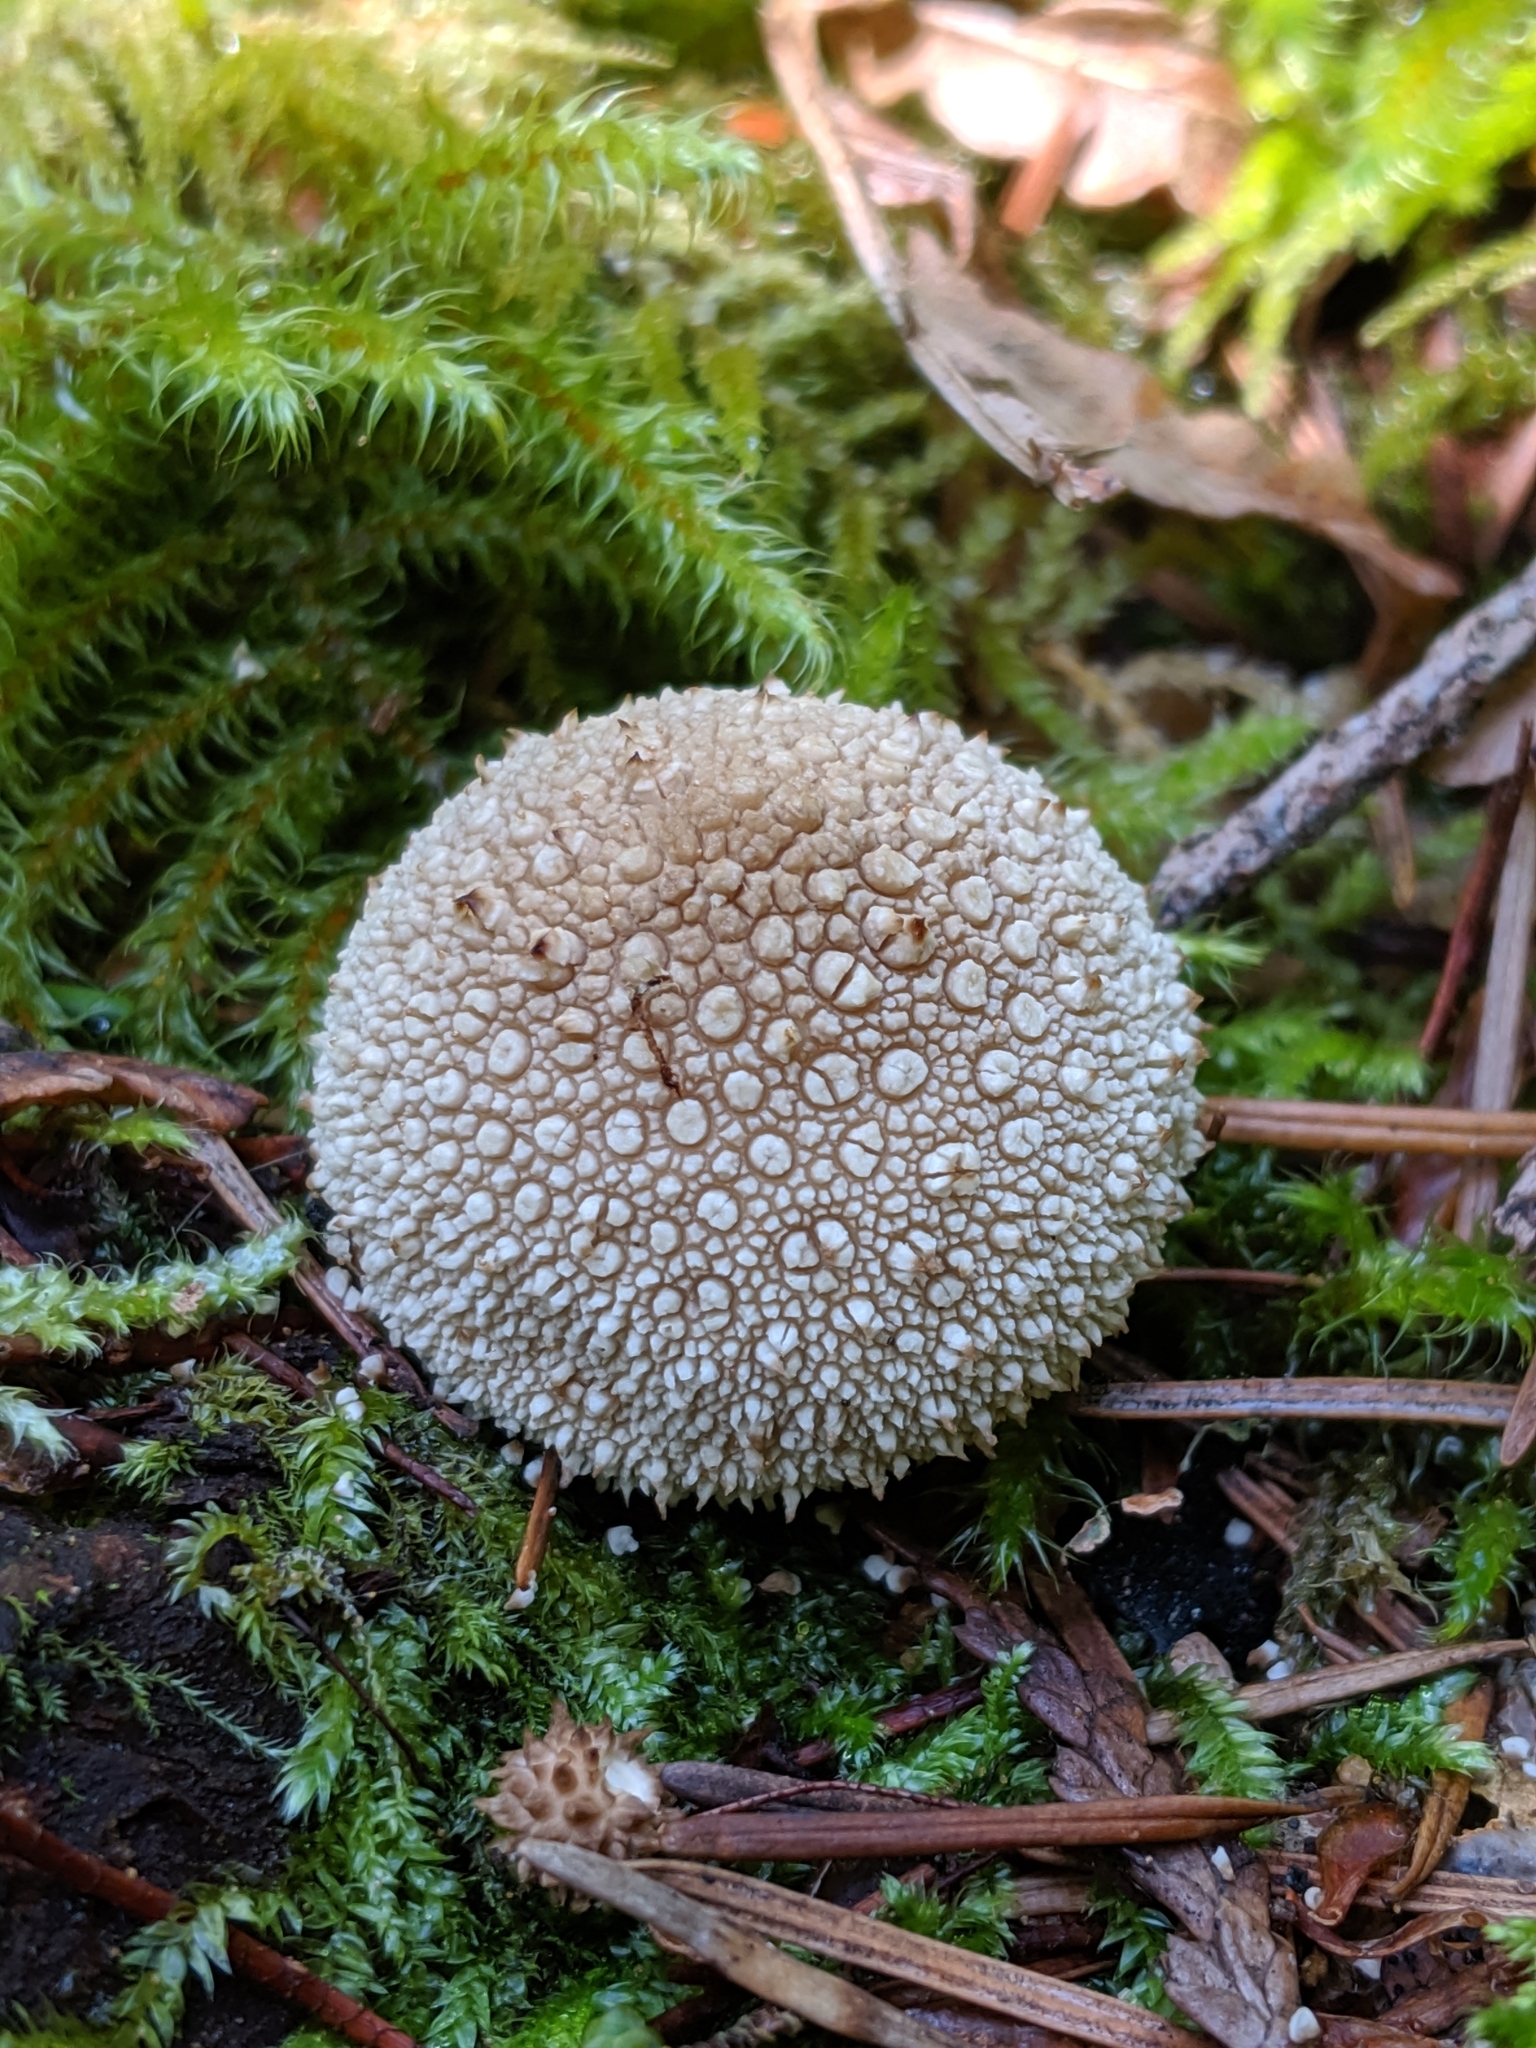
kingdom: Fungi
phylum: Basidiomycota
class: Agaricomycetes
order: Agaricales
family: Lycoperdaceae
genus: Lycoperdon
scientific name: Lycoperdon perlatum
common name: Common puffball
